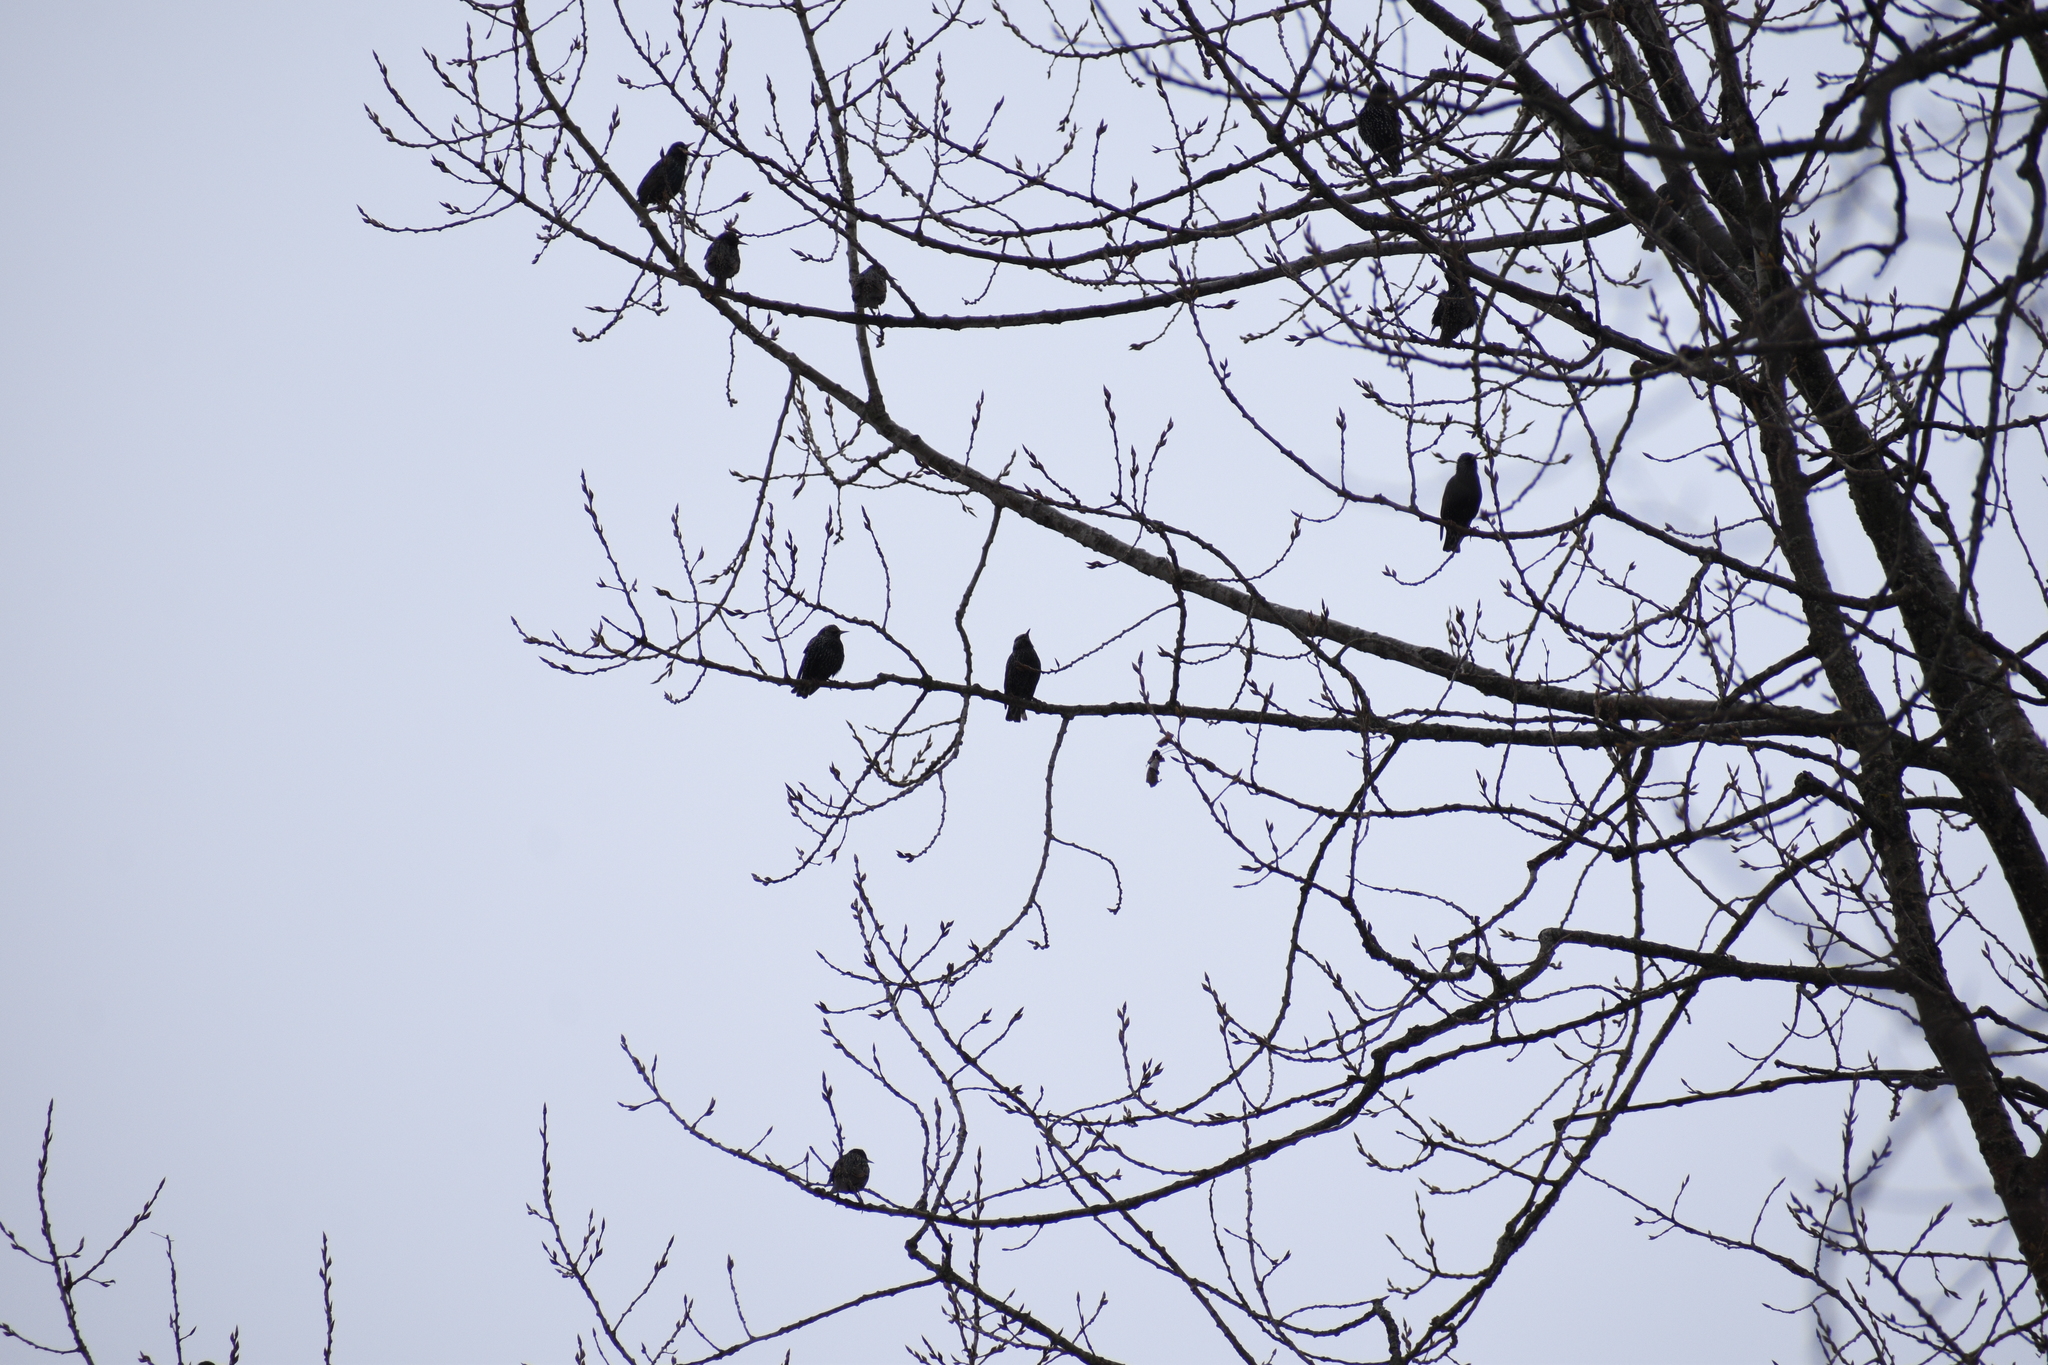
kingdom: Animalia
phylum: Chordata
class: Aves
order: Passeriformes
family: Sturnidae
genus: Sturnus
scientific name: Sturnus vulgaris
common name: Common starling
